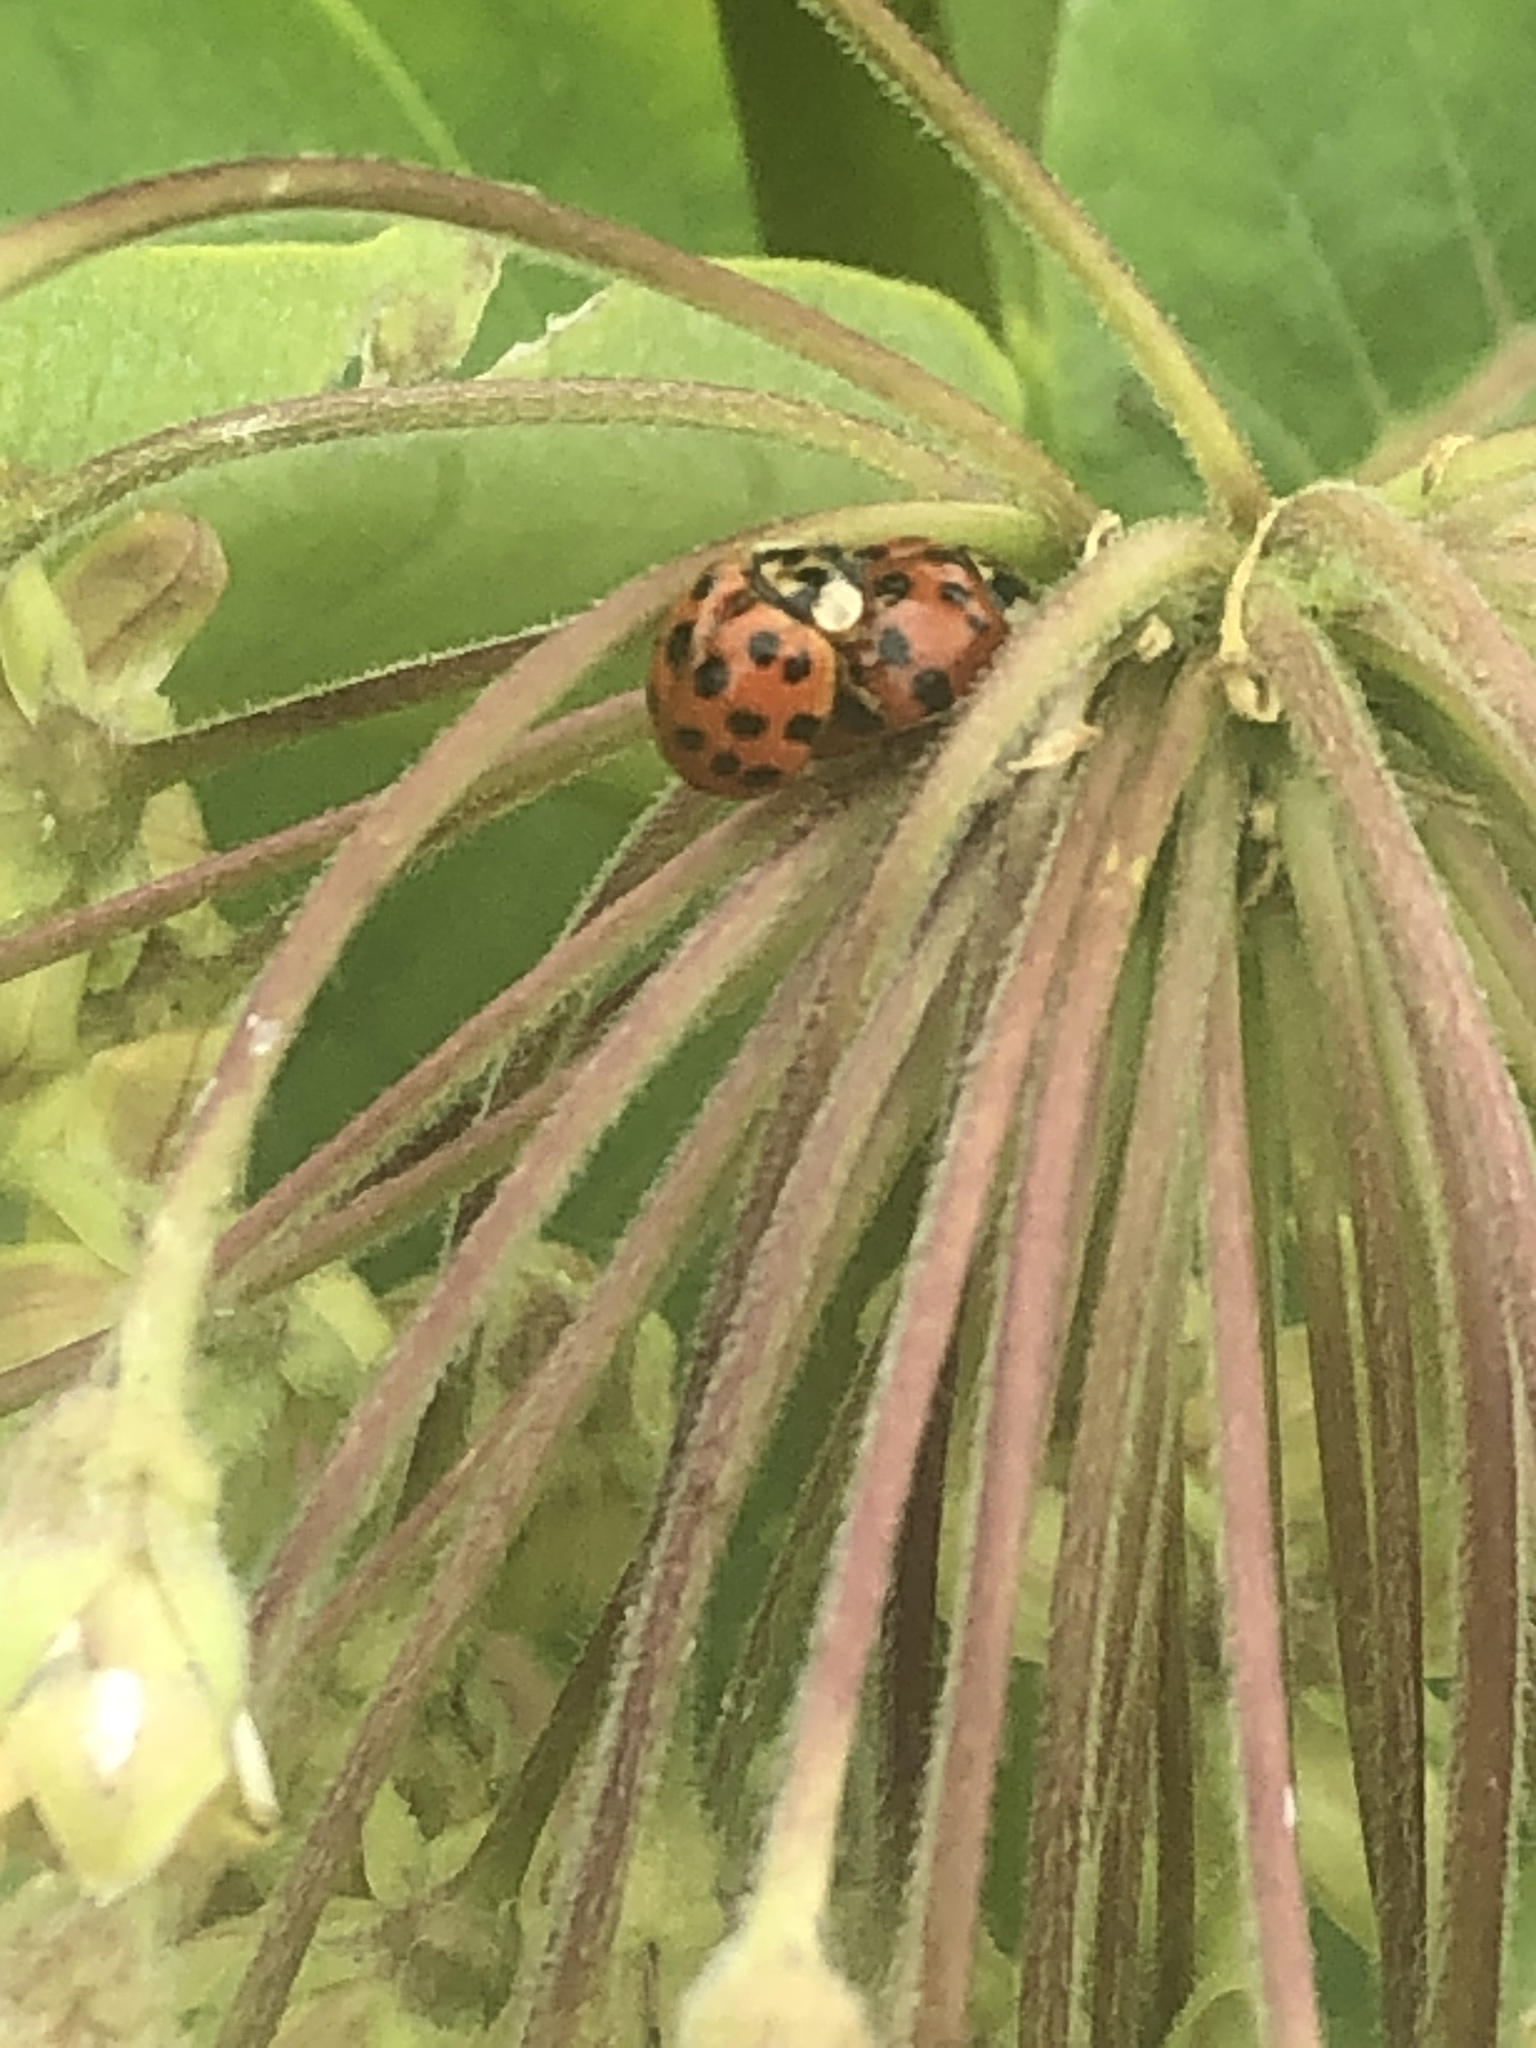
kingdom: Animalia
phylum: Arthropoda
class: Insecta
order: Coleoptera
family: Coccinellidae
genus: Harmonia
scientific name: Harmonia axyridis
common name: Harlequin ladybird
